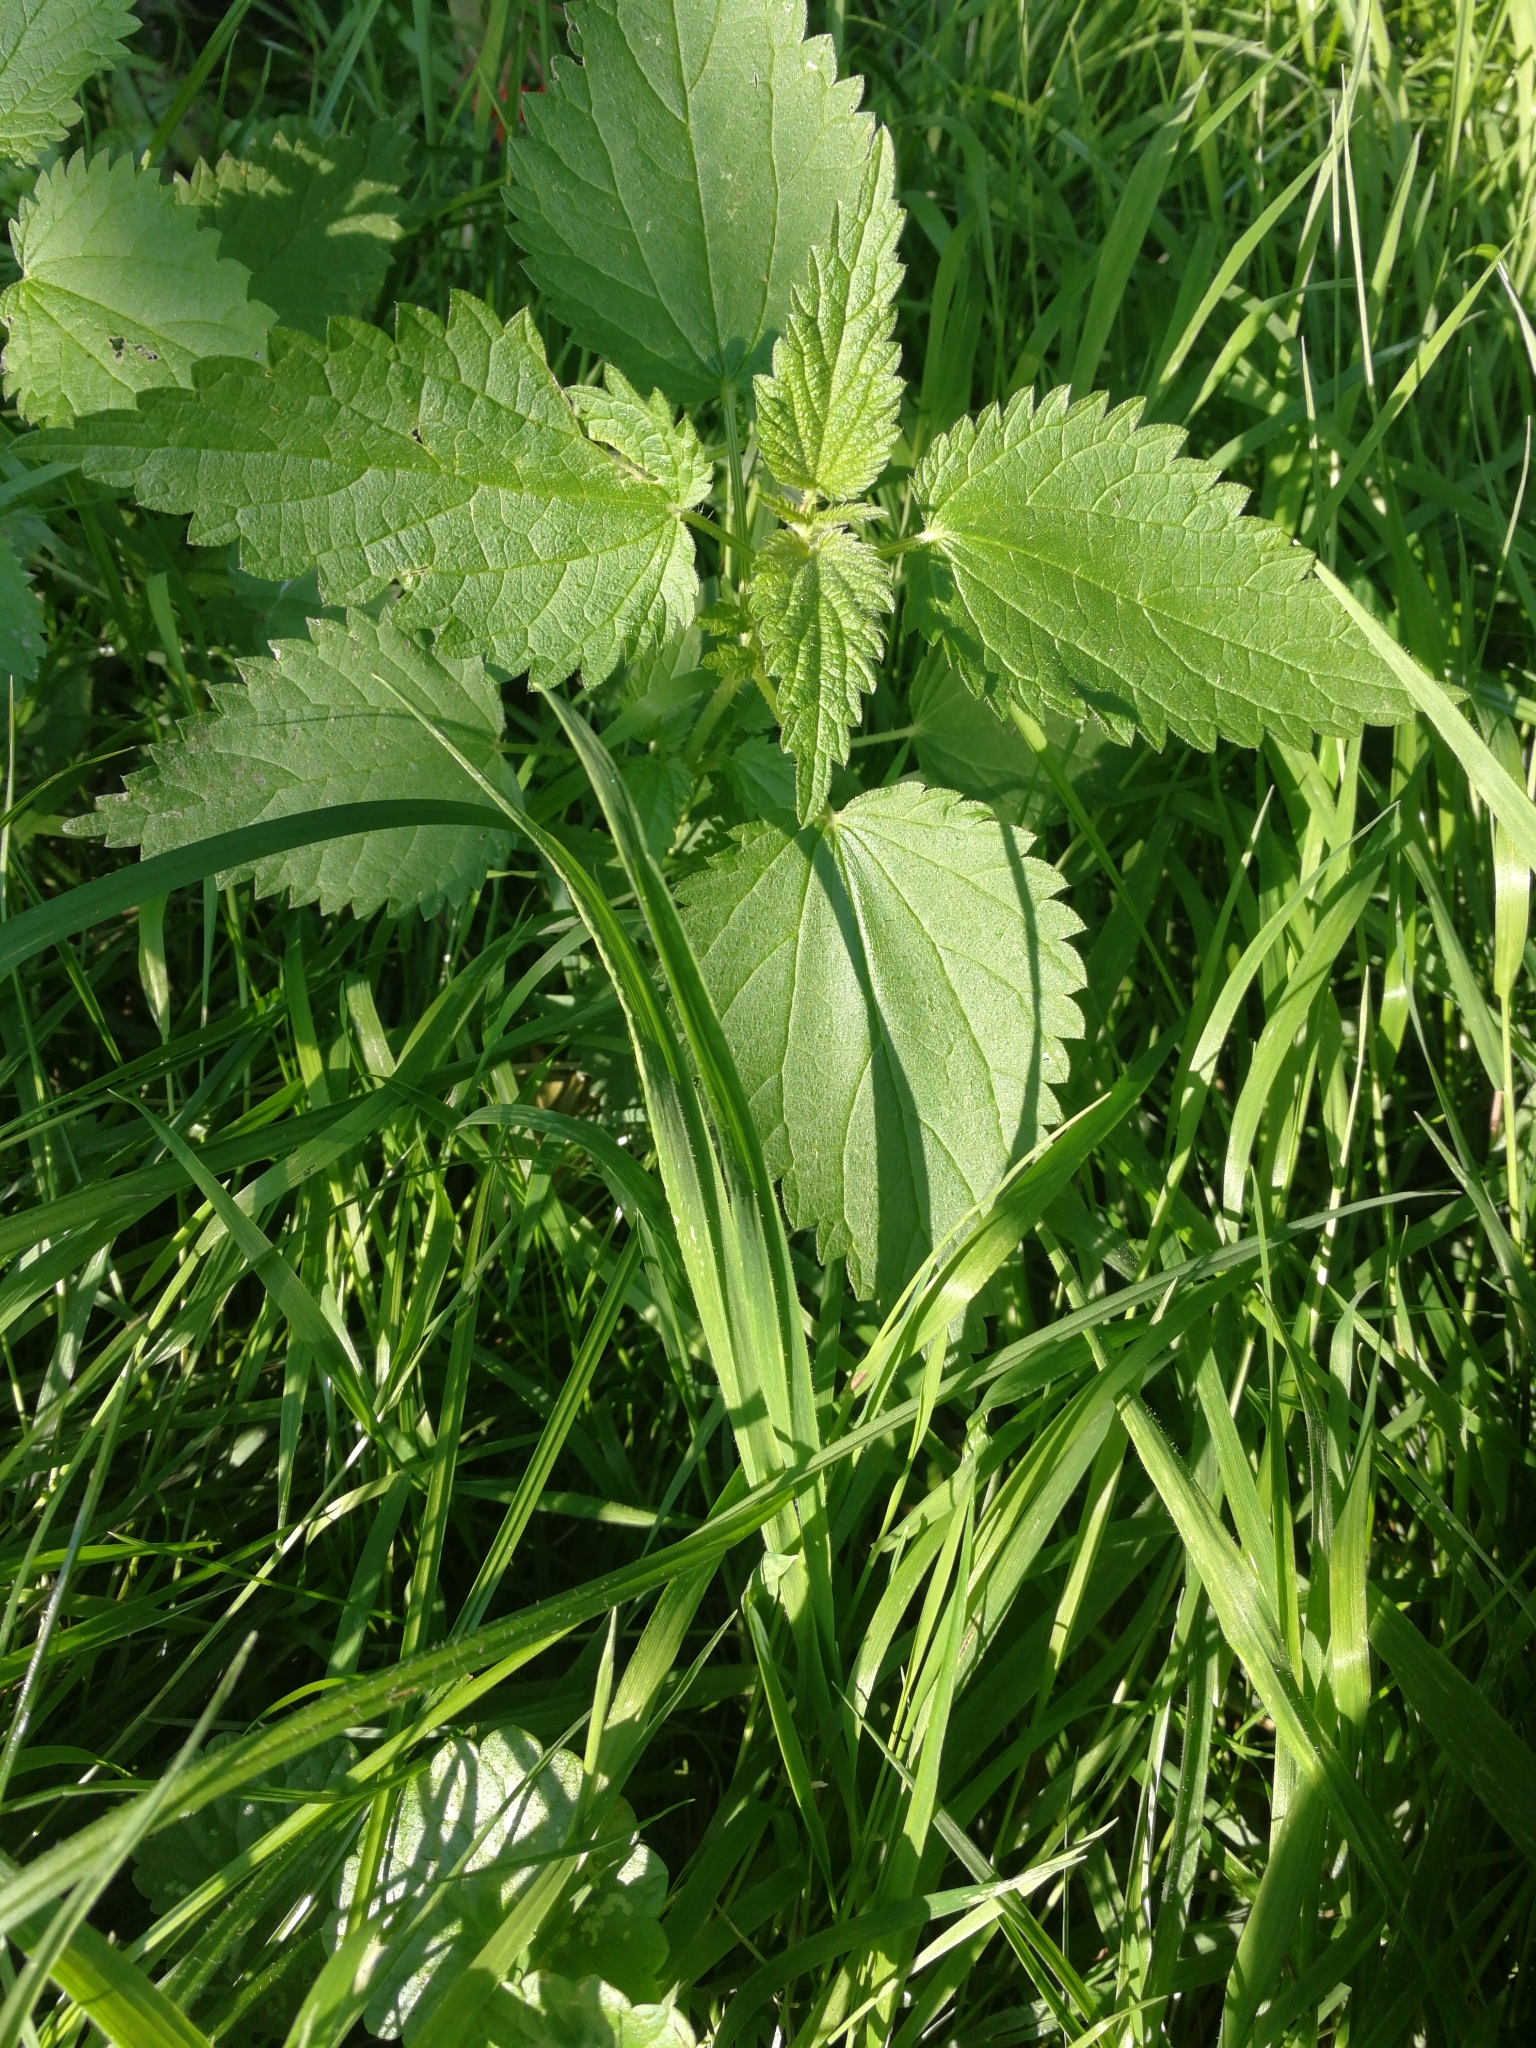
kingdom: Plantae
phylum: Tracheophyta
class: Magnoliopsida
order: Rosales
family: Urticaceae
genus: Urtica
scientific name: Urtica dioica
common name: Common nettle
